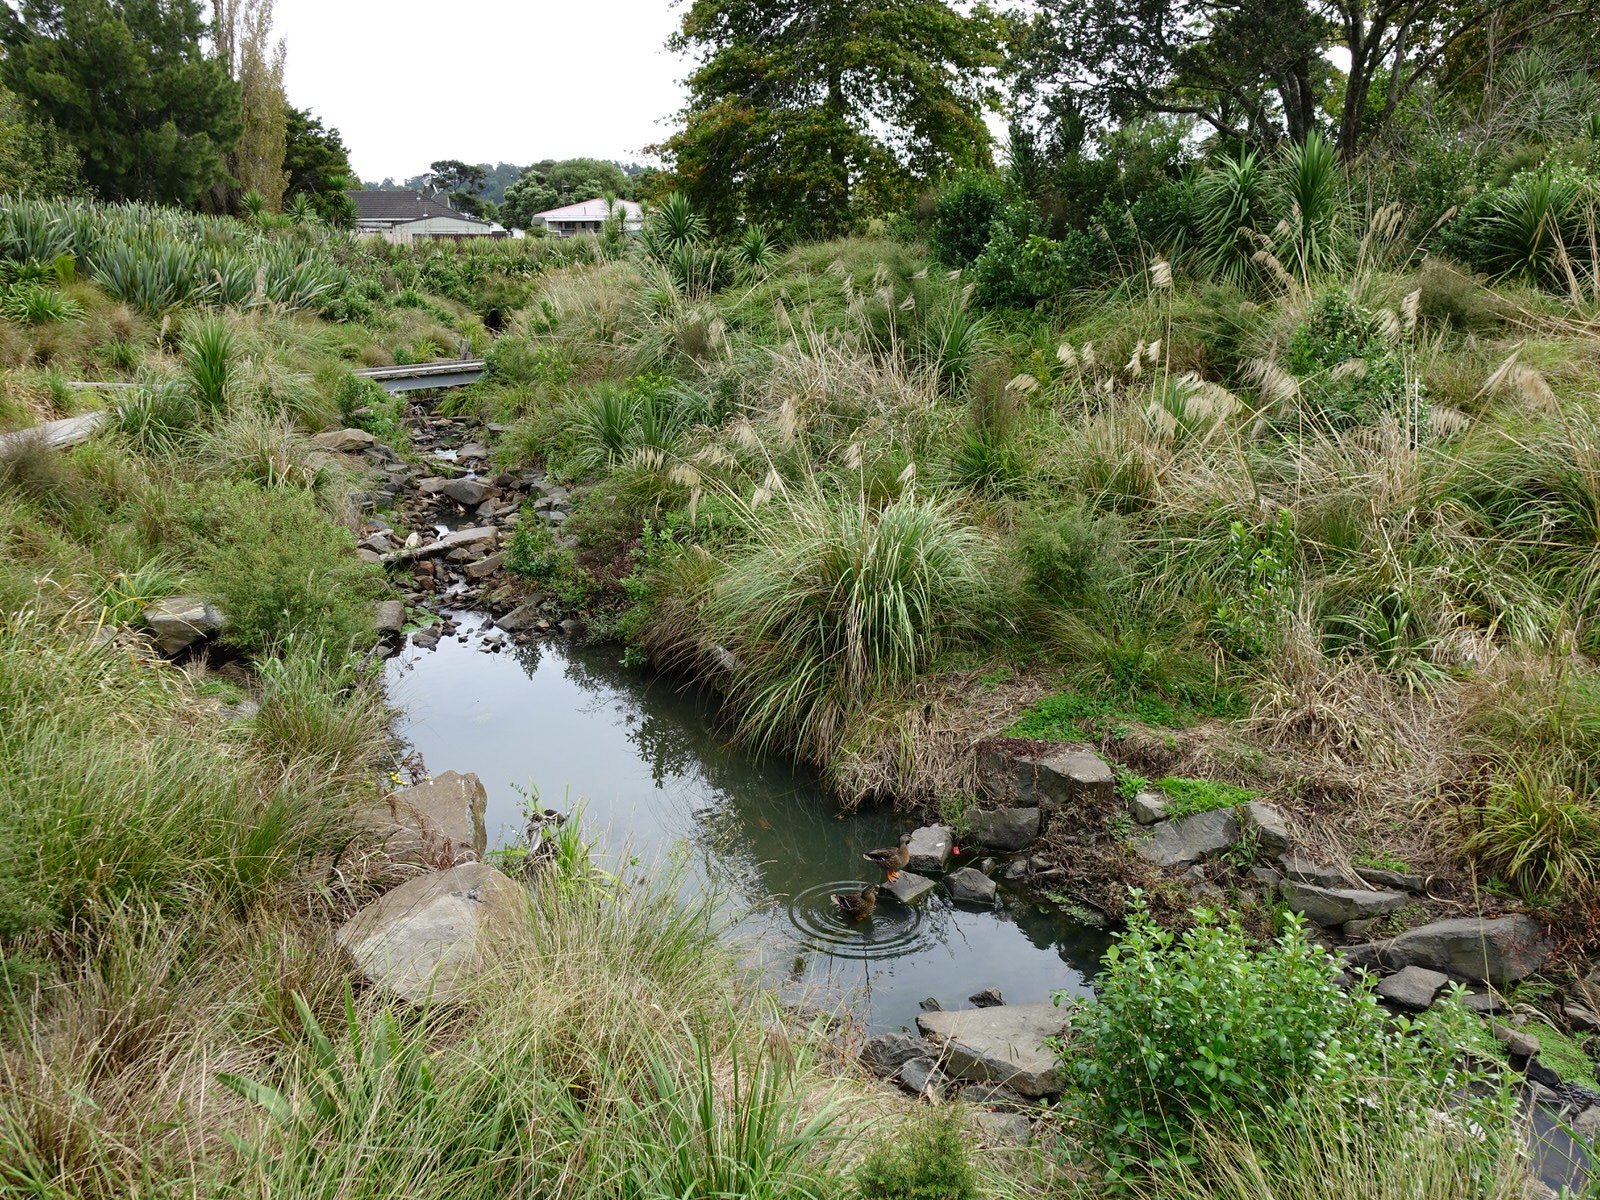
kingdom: Animalia
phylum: Chordata
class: Aves
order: Anseriformes
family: Anatidae
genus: Anas
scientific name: Anas
